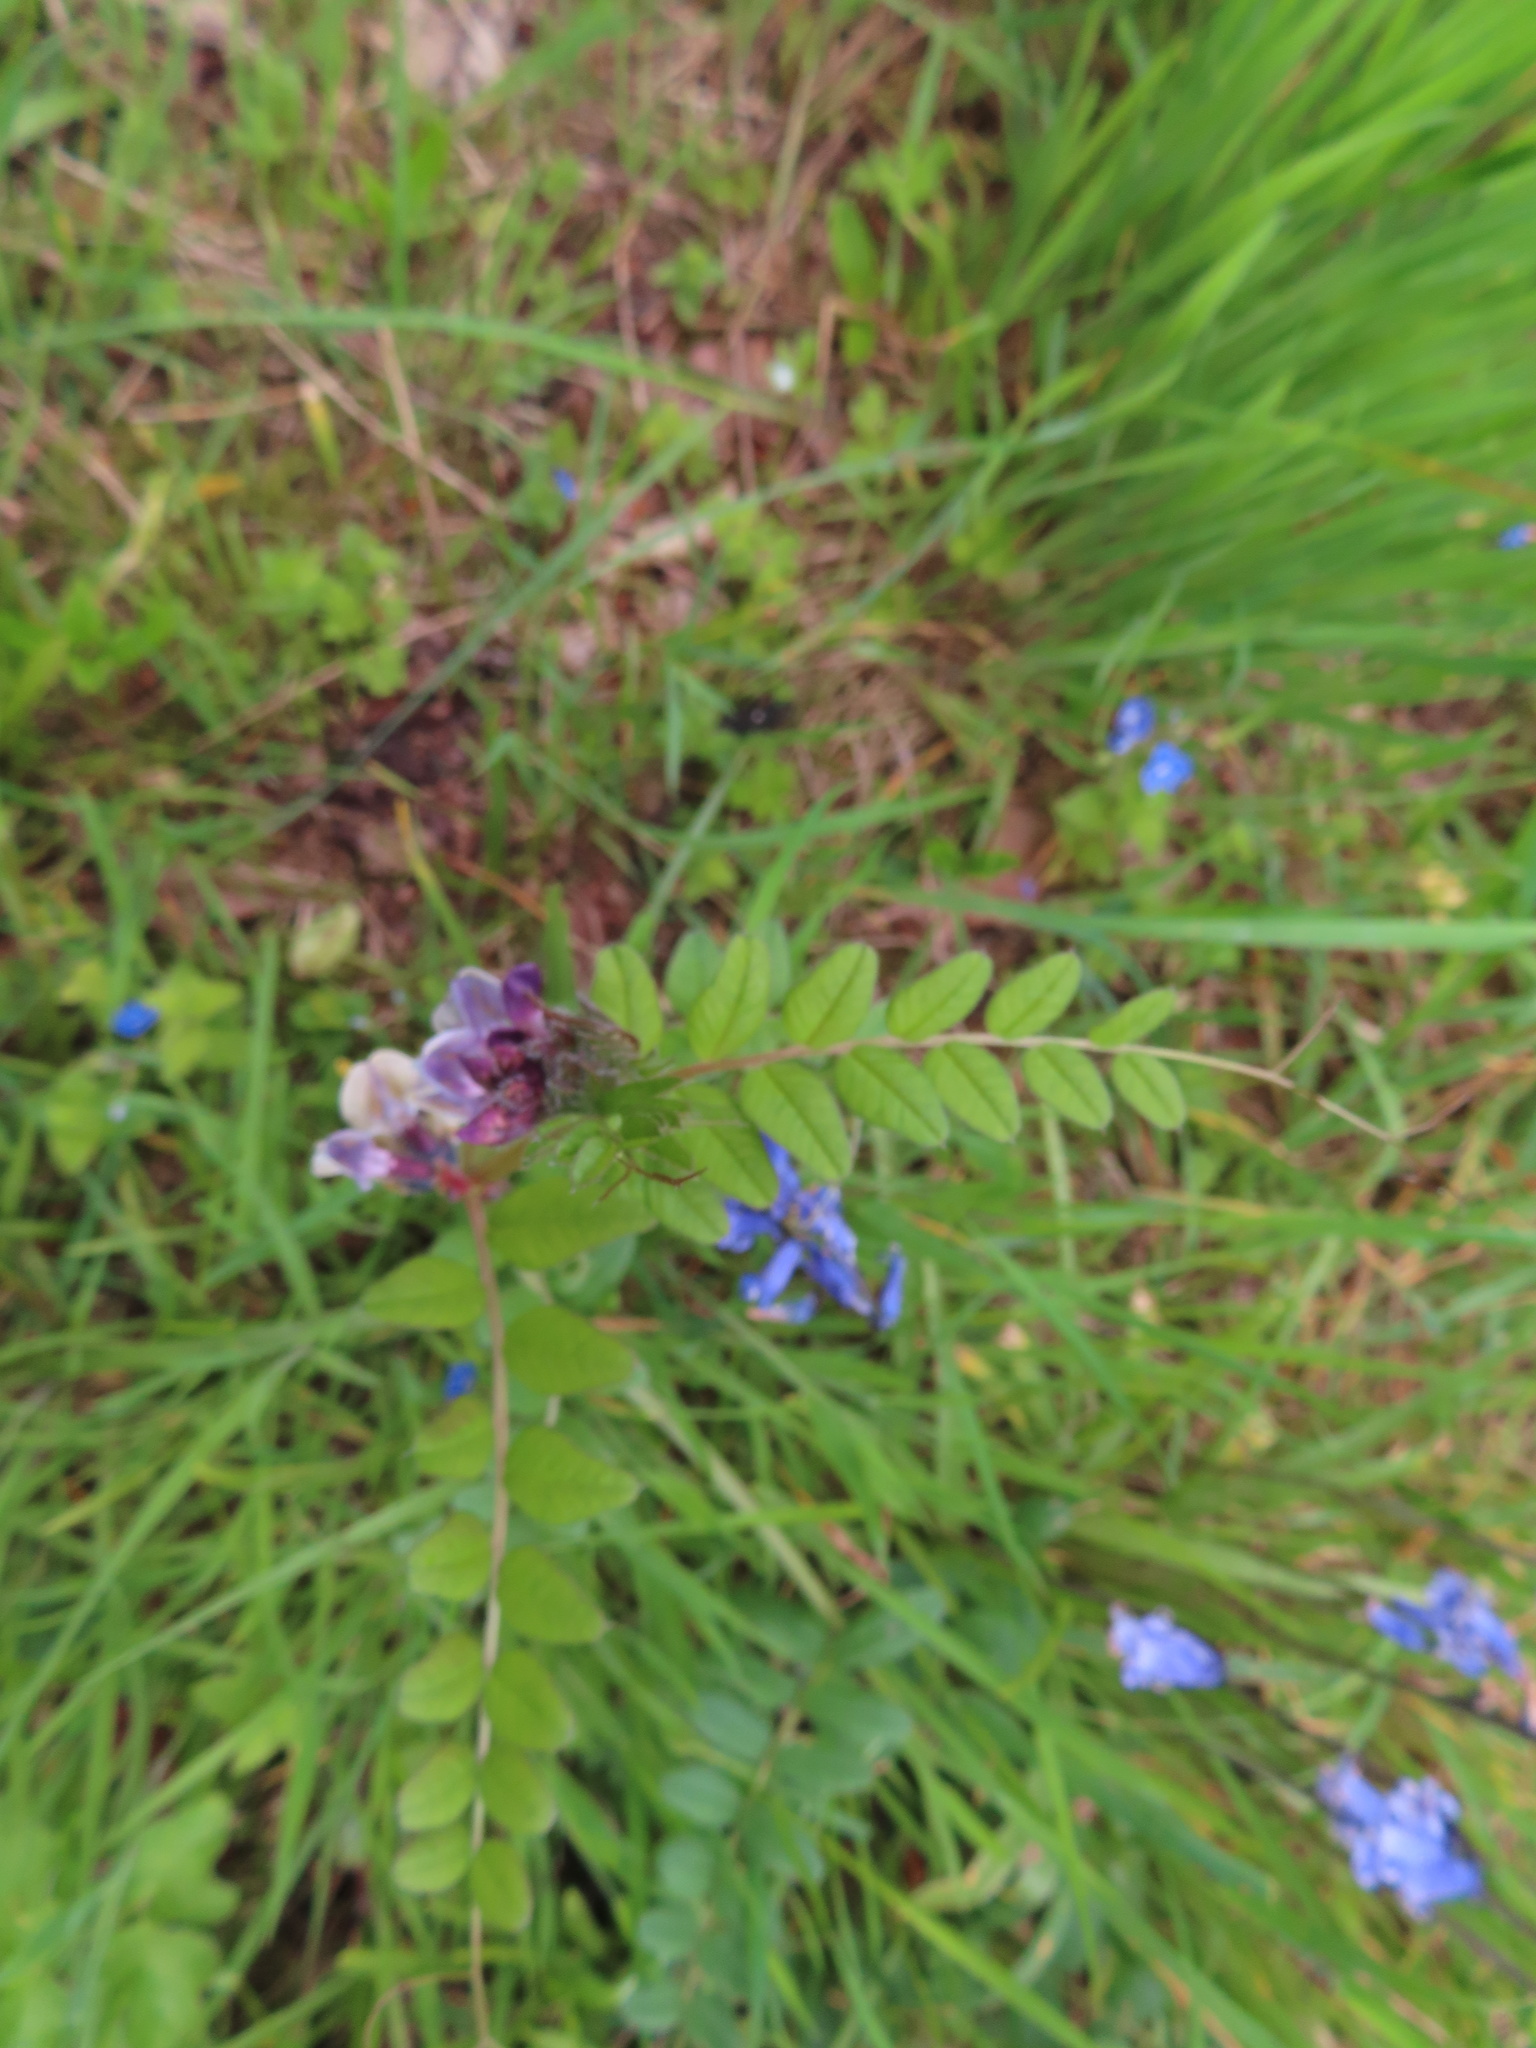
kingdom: Plantae
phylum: Tracheophyta
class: Magnoliopsida
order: Fabales
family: Fabaceae
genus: Vicia
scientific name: Vicia sepium
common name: Bush vetch
